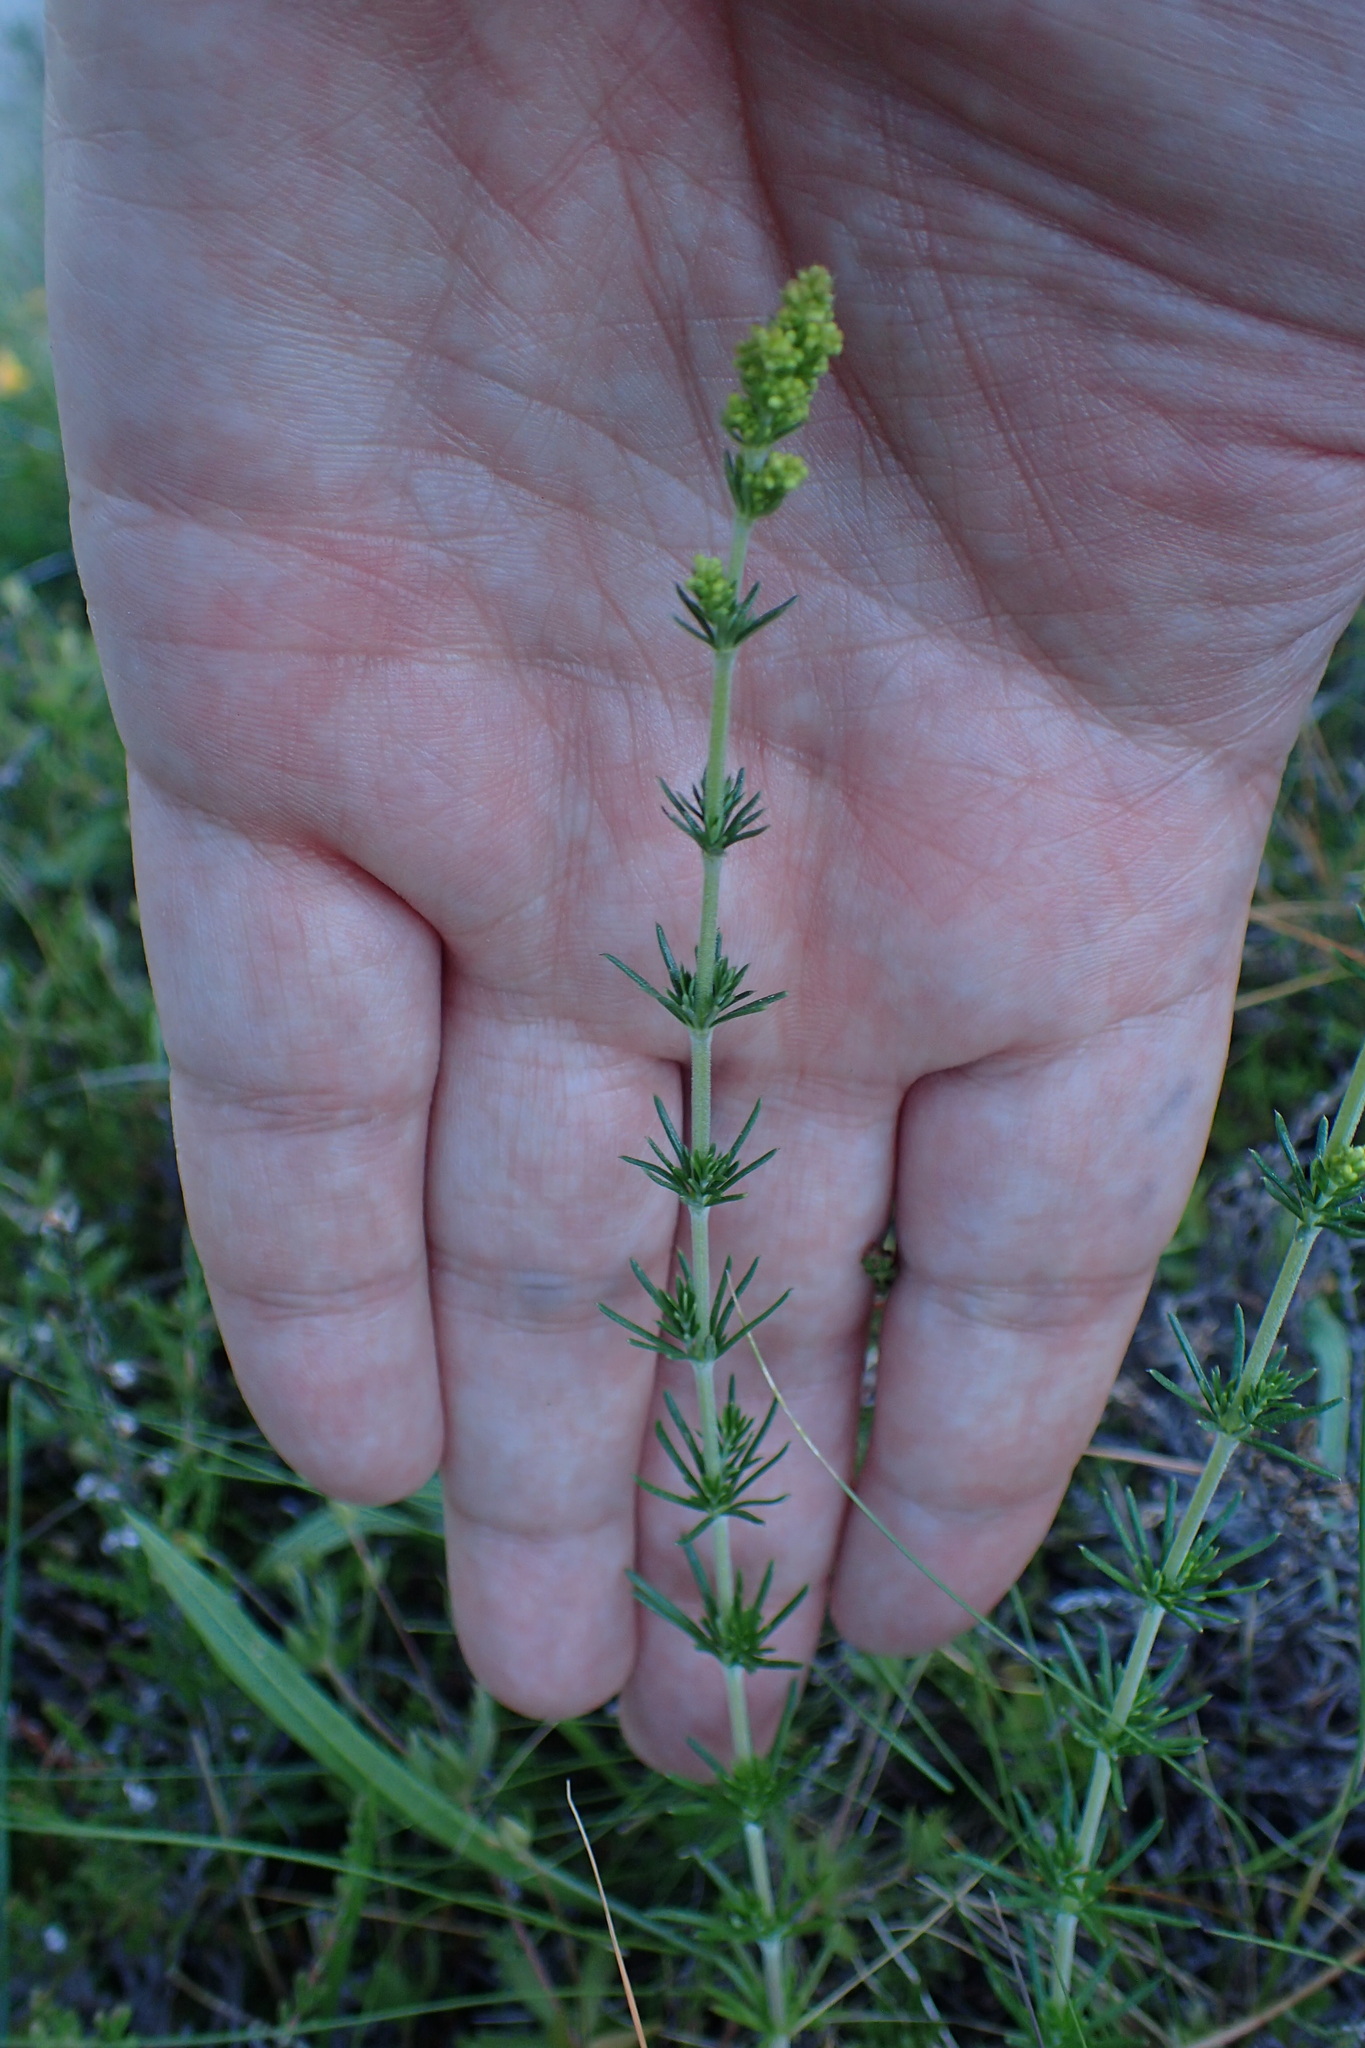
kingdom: Plantae
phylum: Tracheophyta
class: Magnoliopsida
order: Gentianales
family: Rubiaceae
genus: Galium
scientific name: Galium verum
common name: Lady's bedstraw
